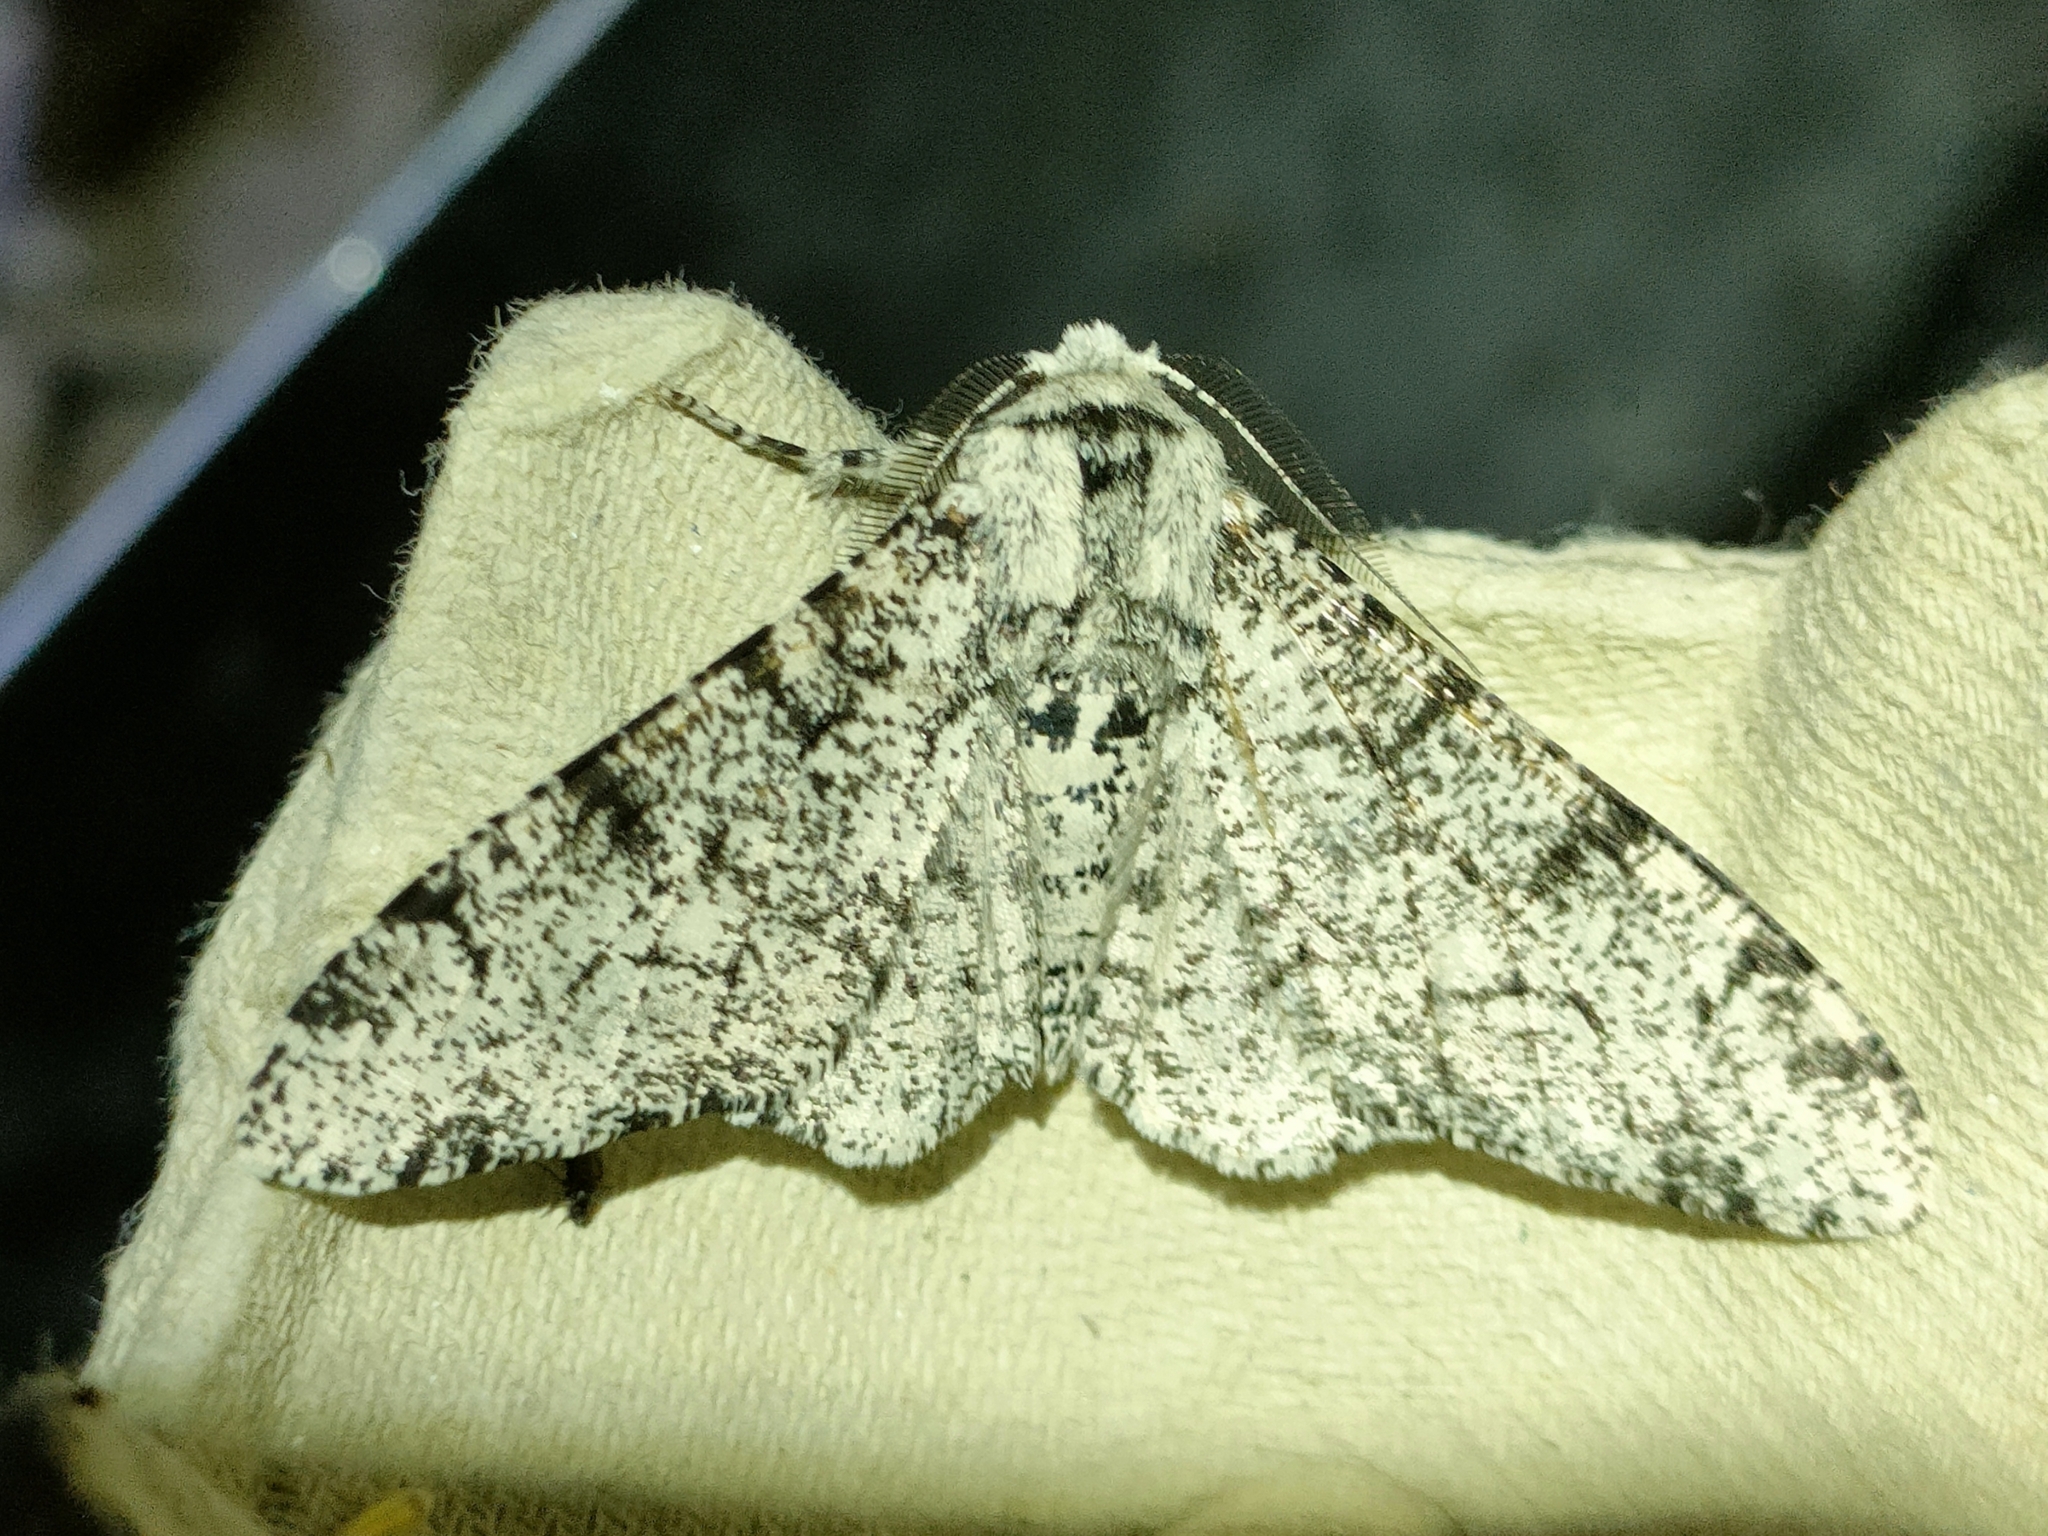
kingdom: Animalia
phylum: Arthropoda
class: Insecta
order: Lepidoptera
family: Geometridae
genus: Biston
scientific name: Biston strataria
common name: Oak beauty
